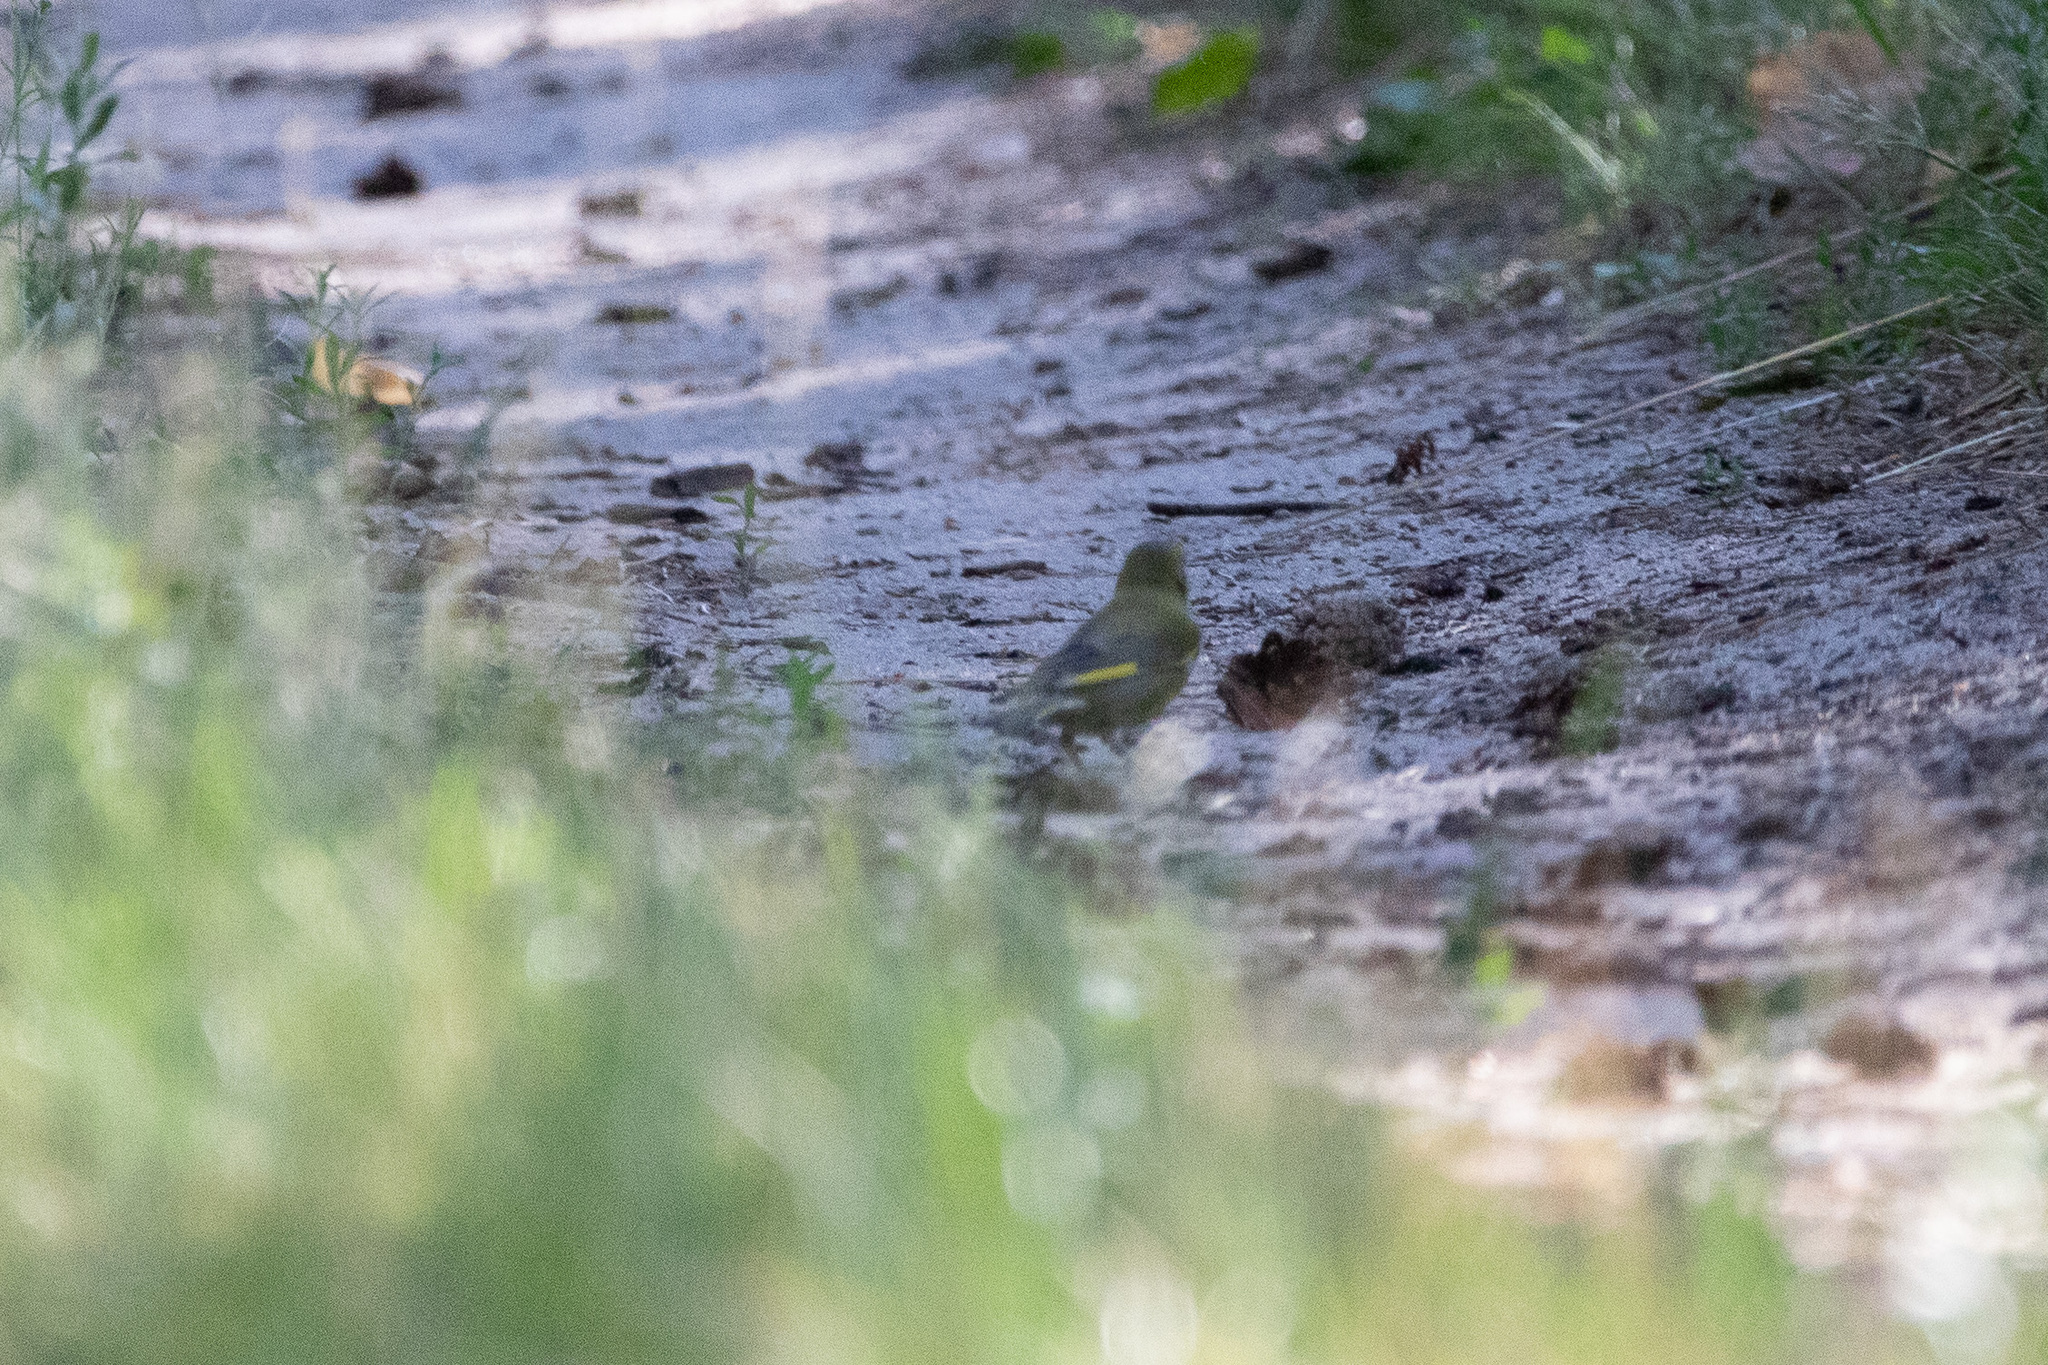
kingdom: Plantae
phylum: Tracheophyta
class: Liliopsida
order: Poales
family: Poaceae
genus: Chloris
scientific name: Chloris chloris
